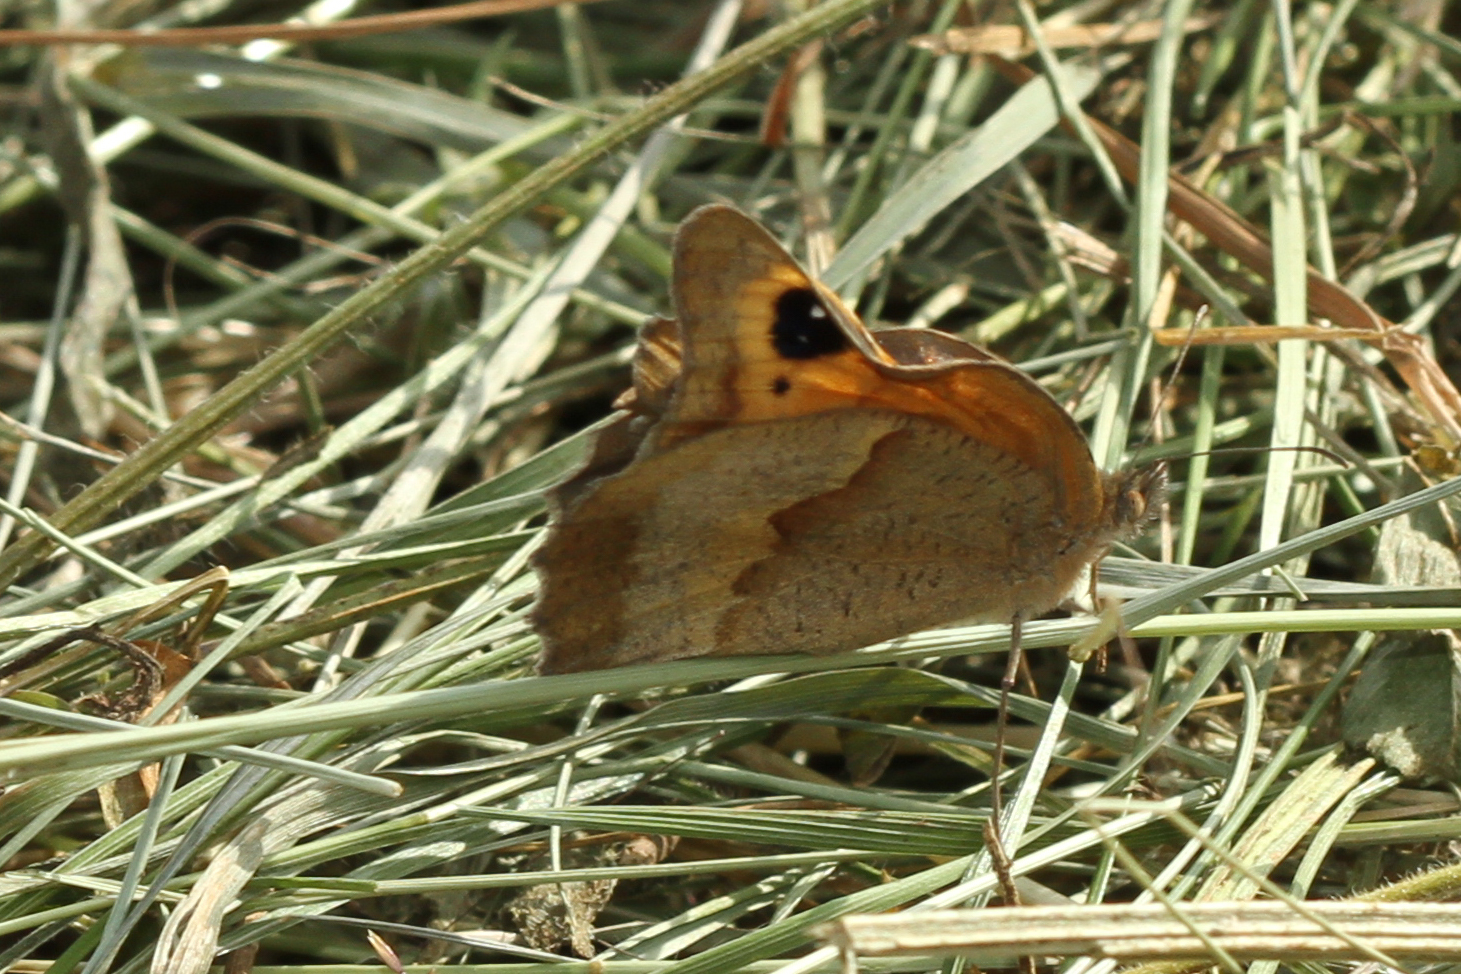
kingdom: Animalia
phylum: Arthropoda
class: Insecta
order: Lepidoptera
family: Nymphalidae
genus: Maniola
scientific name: Maniola jurtina
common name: Meadow brown
